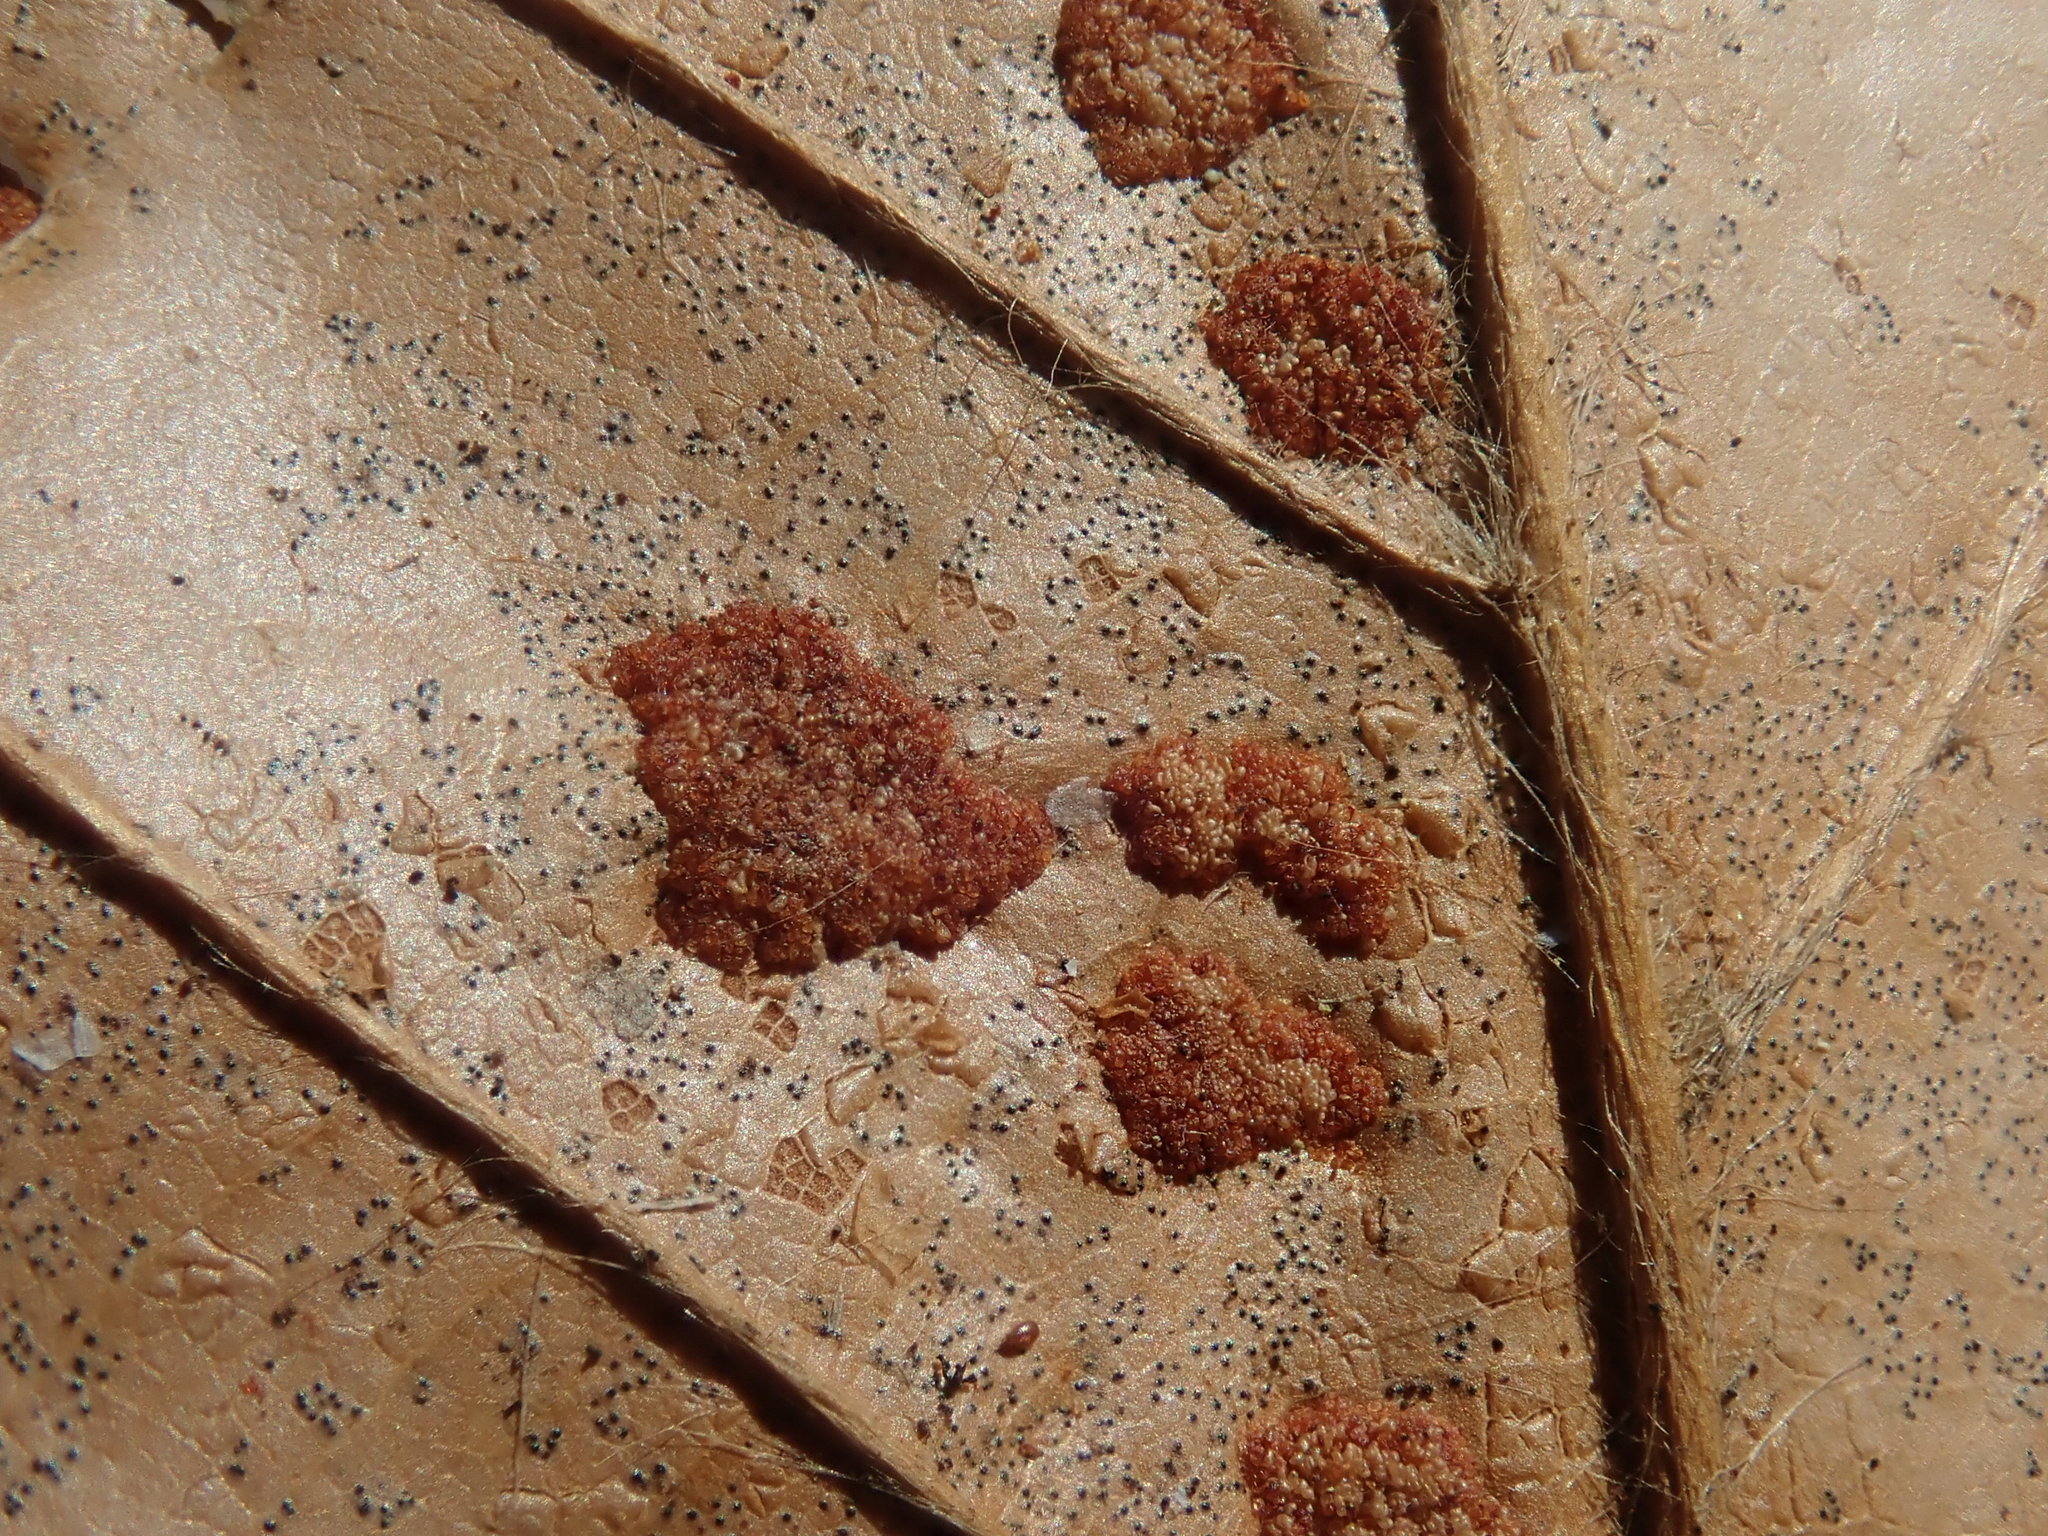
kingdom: Animalia
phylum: Arthropoda
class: Arachnida
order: Trombidiformes
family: Eriophyidae
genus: Acalitus
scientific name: Acalitus
